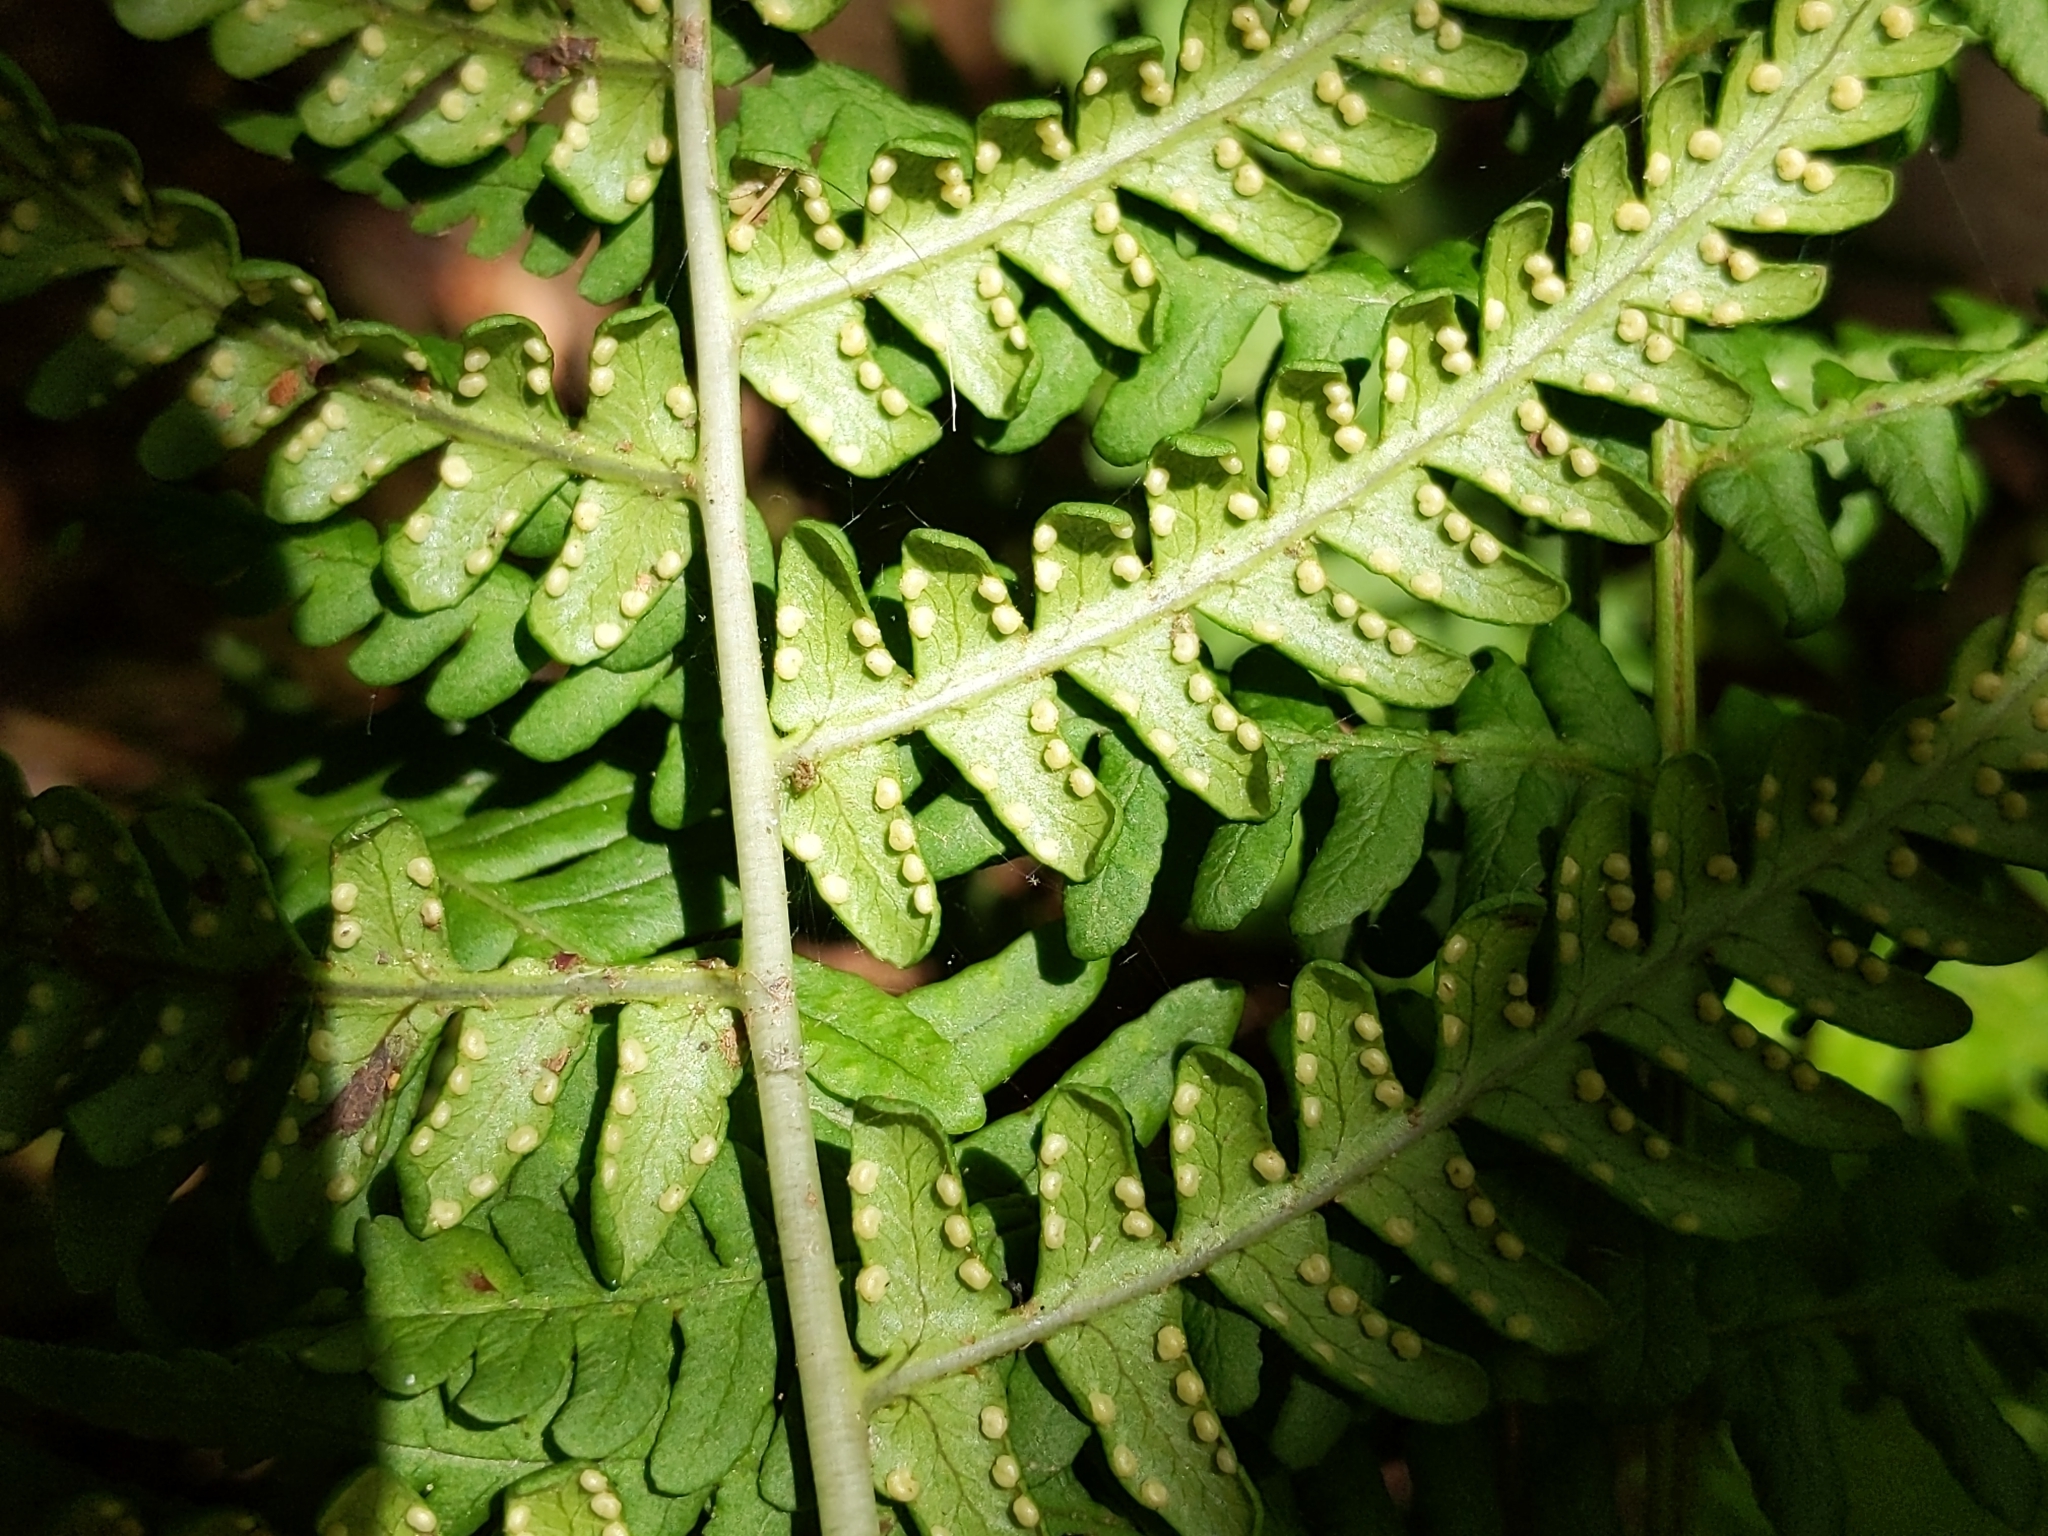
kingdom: Plantae
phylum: Tracheophyta
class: Polypodiopsida
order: Polypodiales
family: Dryopteridaceae
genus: Dryopteris
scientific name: Dryopteris marginalis
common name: Marginal wood fern
